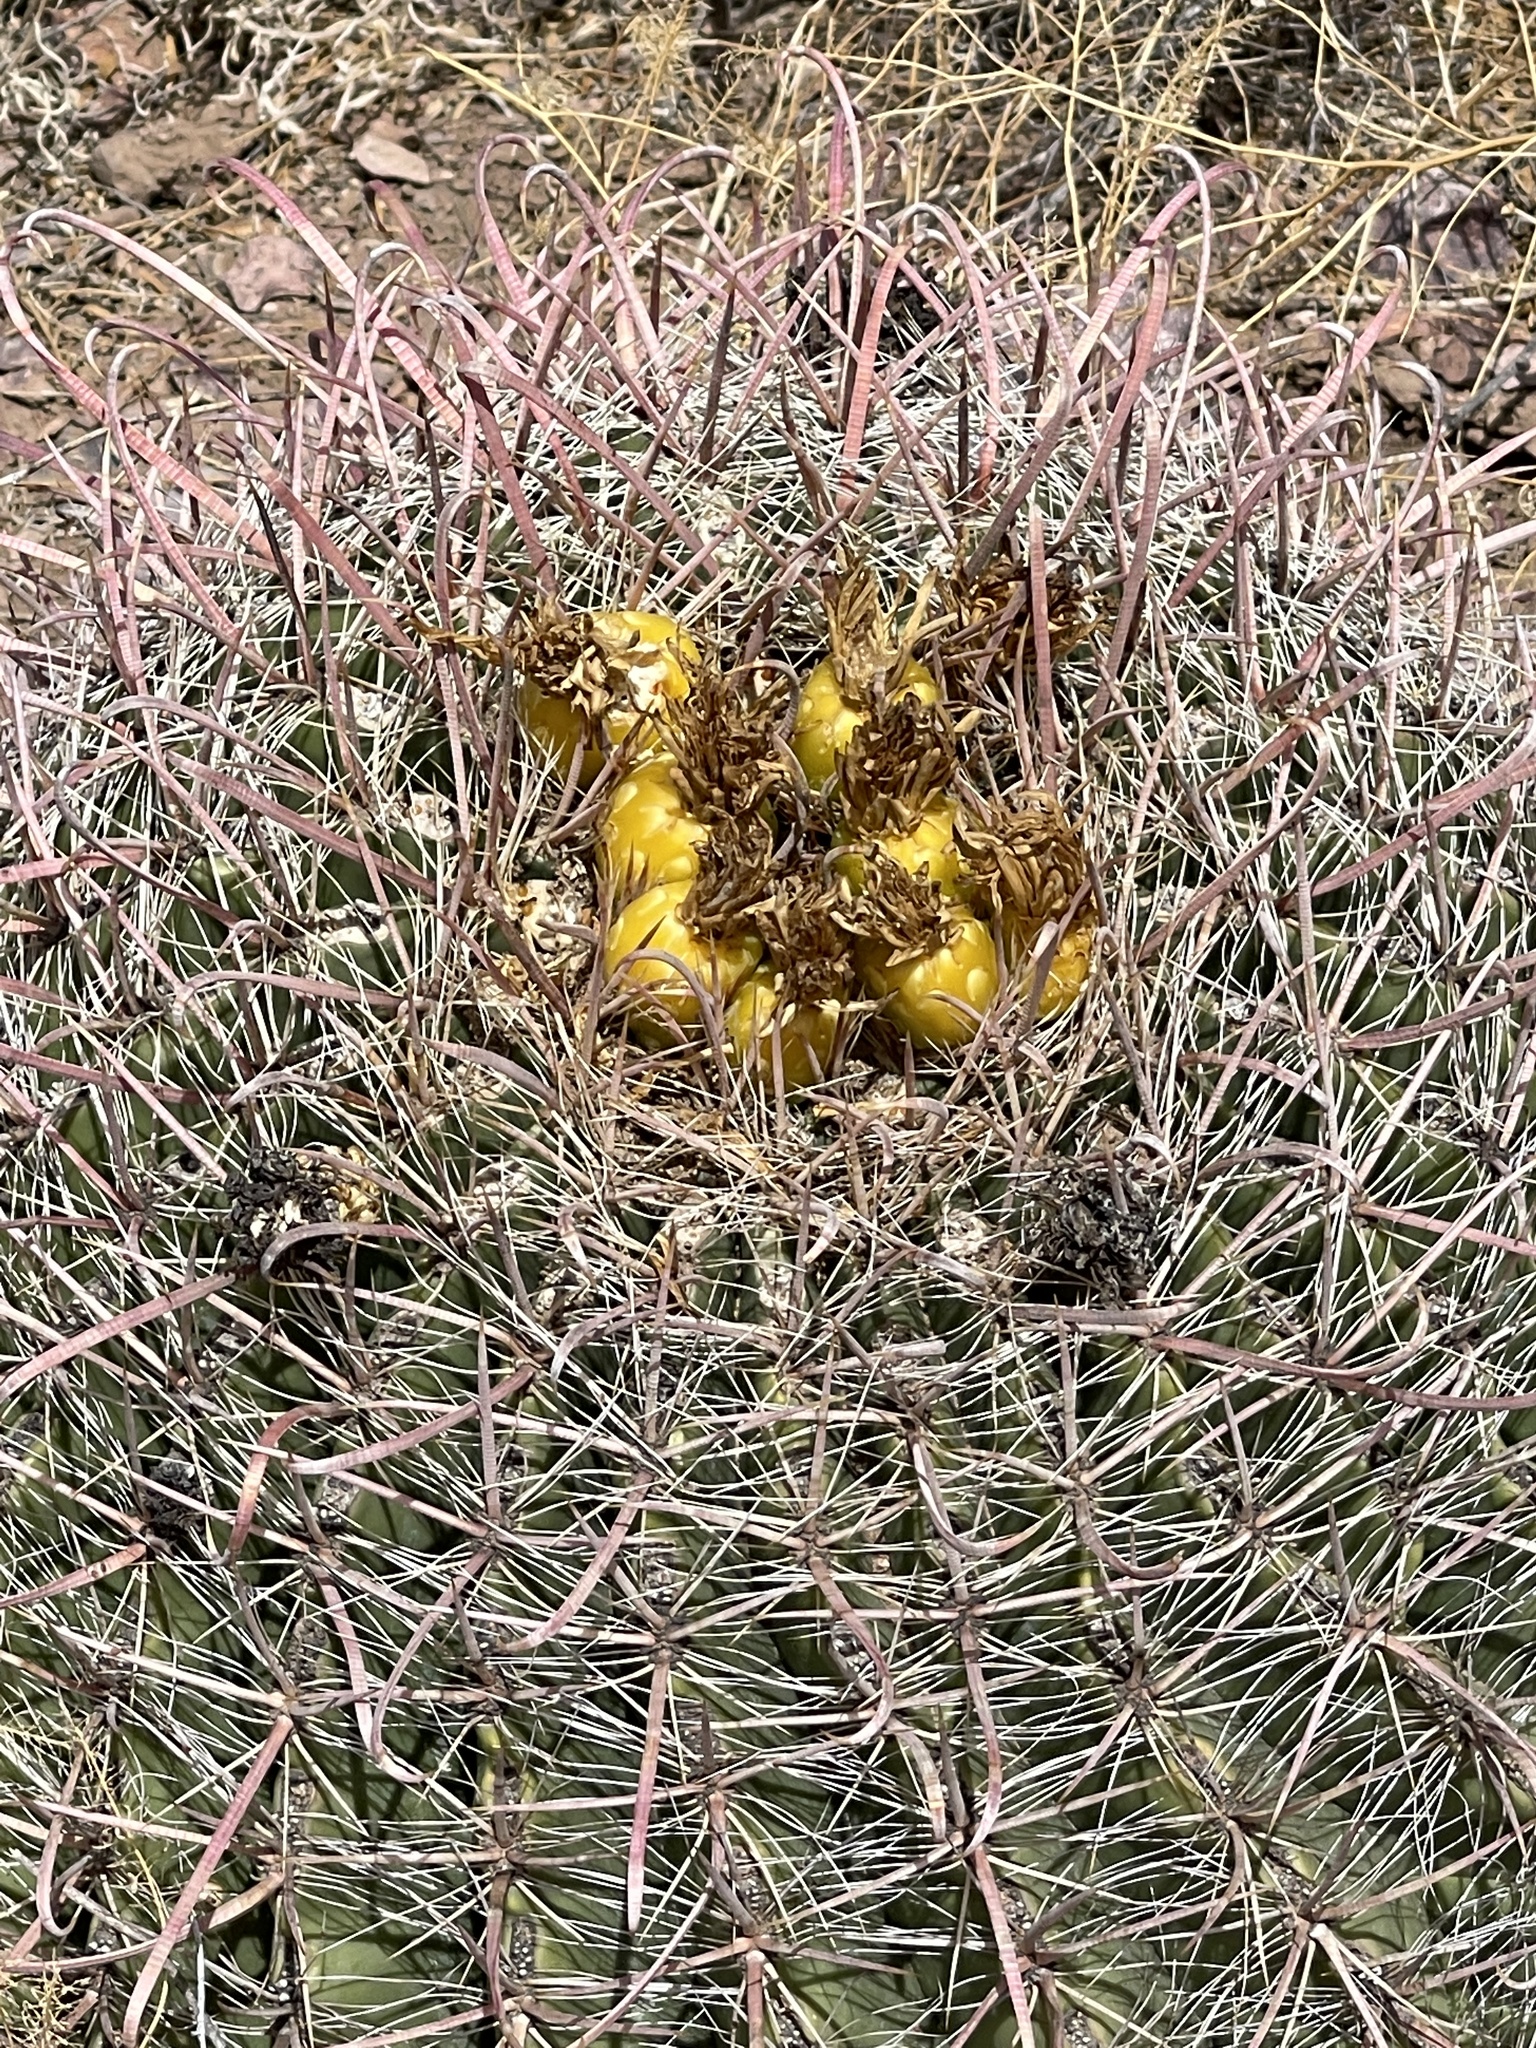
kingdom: Plantae
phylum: Tracheophyta
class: Magnoliopsida
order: Caryophyllales
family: Cactaceae
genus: Ferocactus
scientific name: Ferocactus wislizeni
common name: Candy barrel cactus
